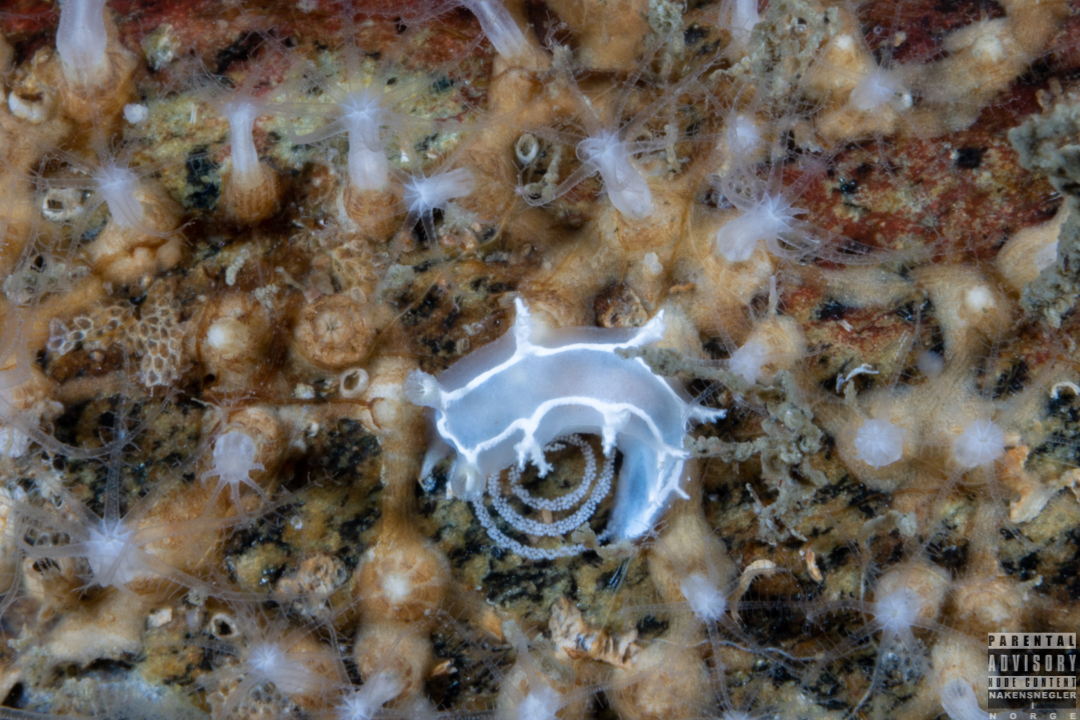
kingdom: Animalia
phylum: Mollusca
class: Gastropoda
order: Nudibranchia
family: Tritoniidae
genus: Duvaucelia
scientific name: Duvaucelia lineata
